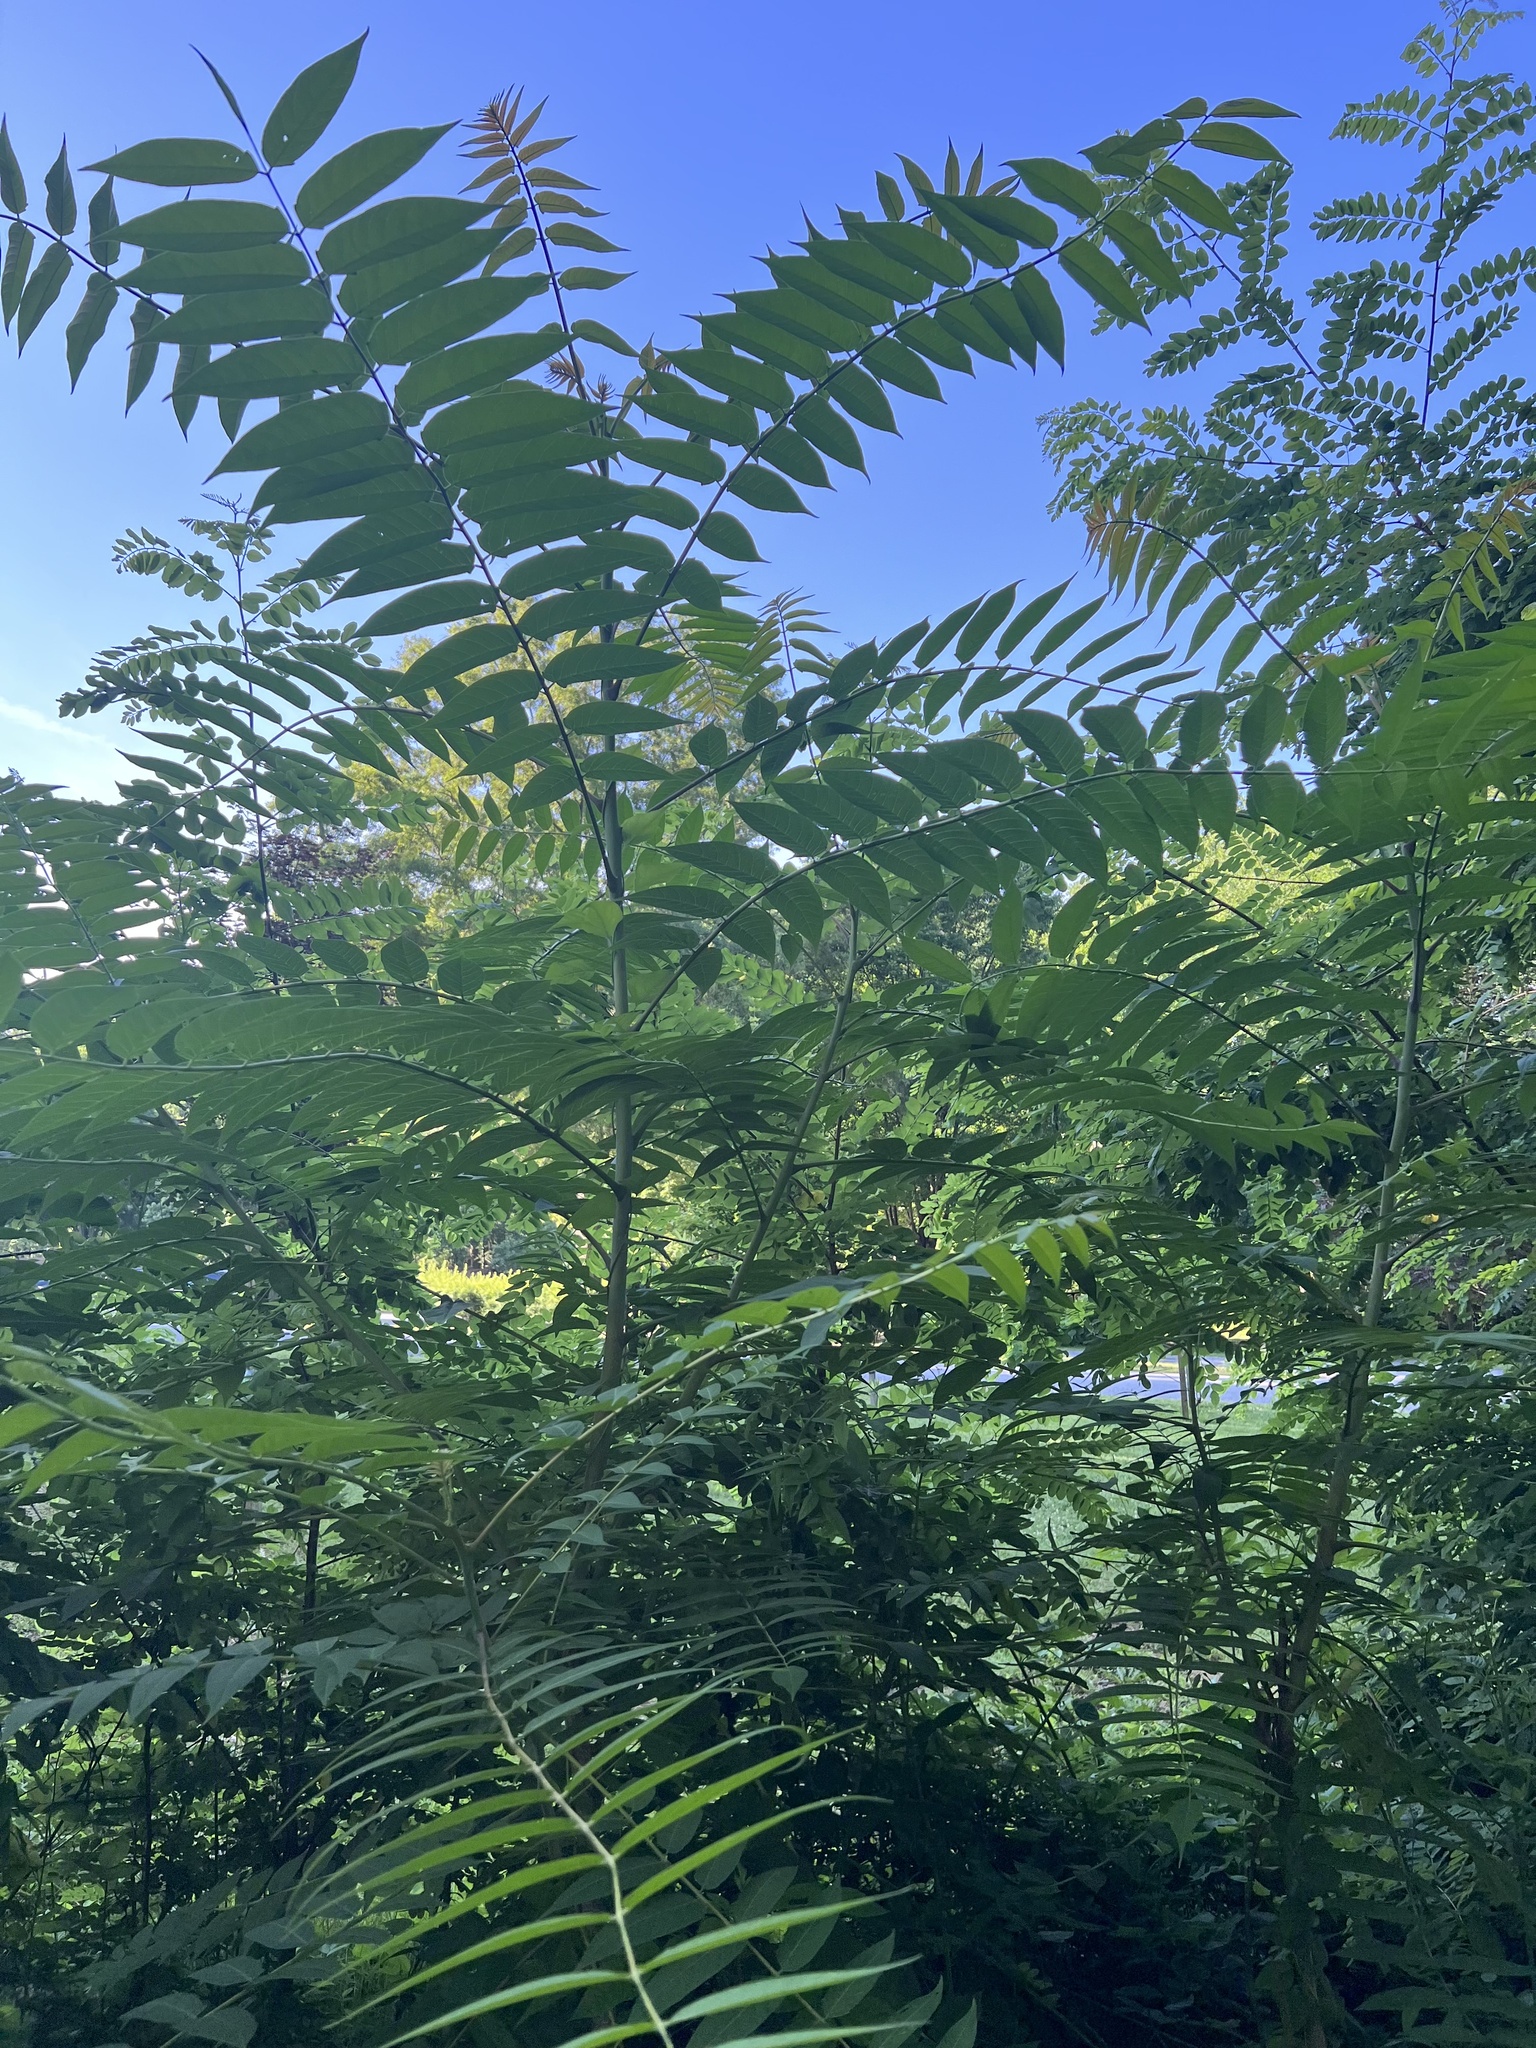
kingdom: Plantae
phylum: Tracheophyta
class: Magnoliopsida
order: Sapindales
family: Simaroubaceae
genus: Ailanthus
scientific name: Ailanthus altissima
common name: Tree-of-heaven
